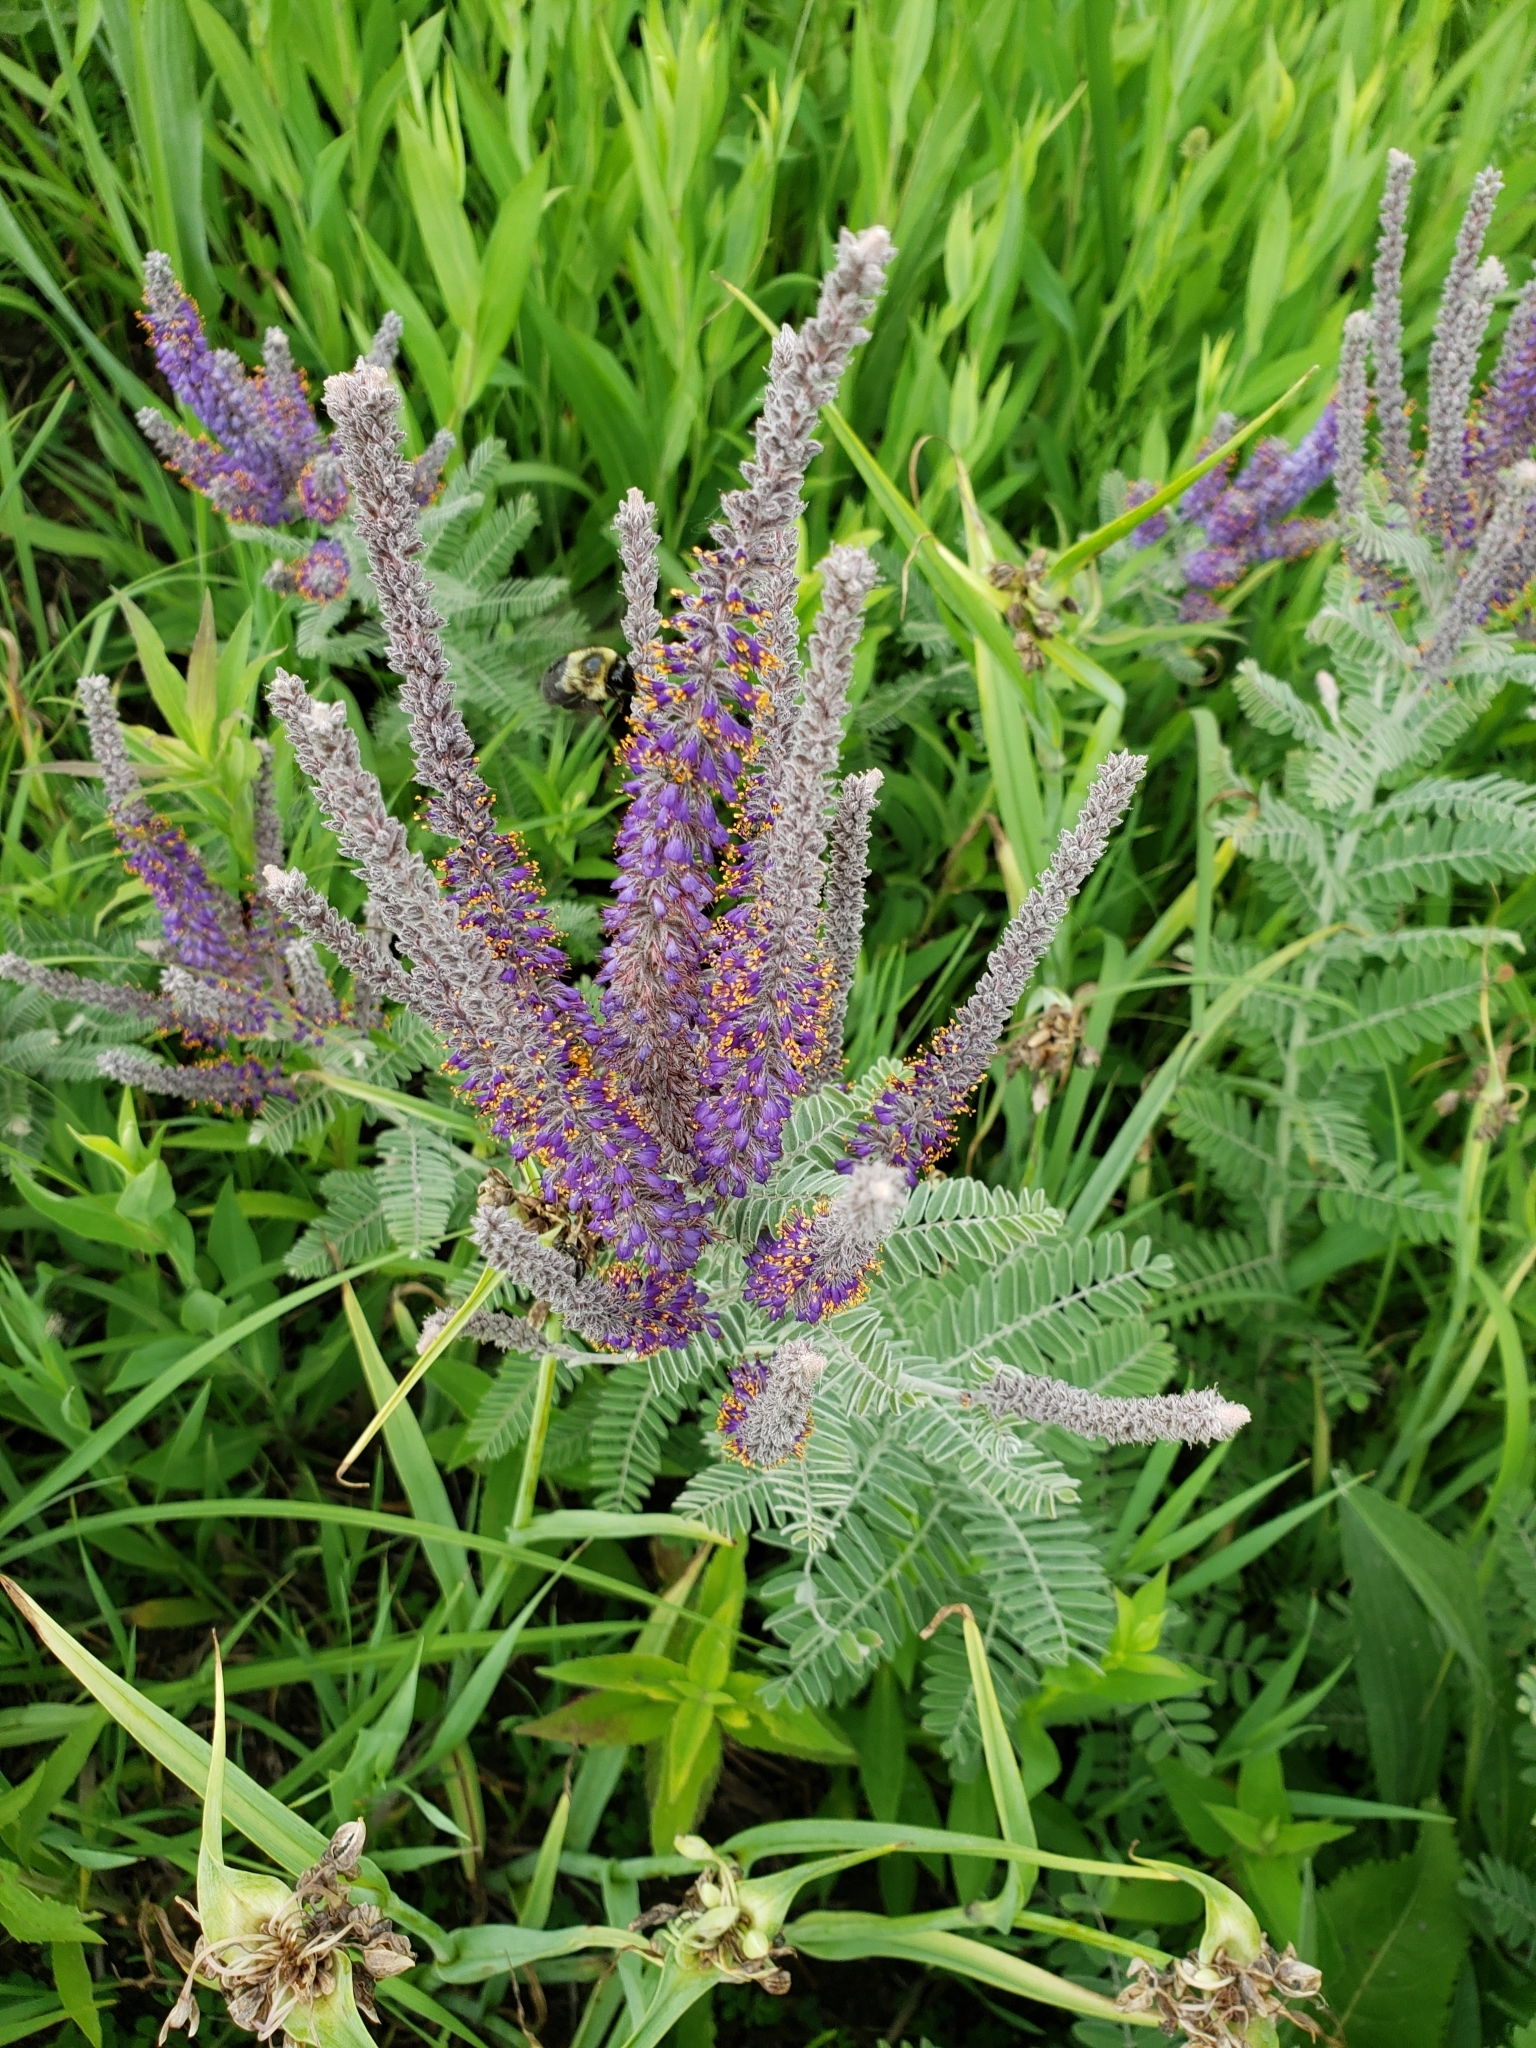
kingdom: Plantae
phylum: Tracheophyta
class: Magnoliopsida
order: Fabales
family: Fabaceae
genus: Amorpha
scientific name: Amorpha canescens
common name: Leadplant
